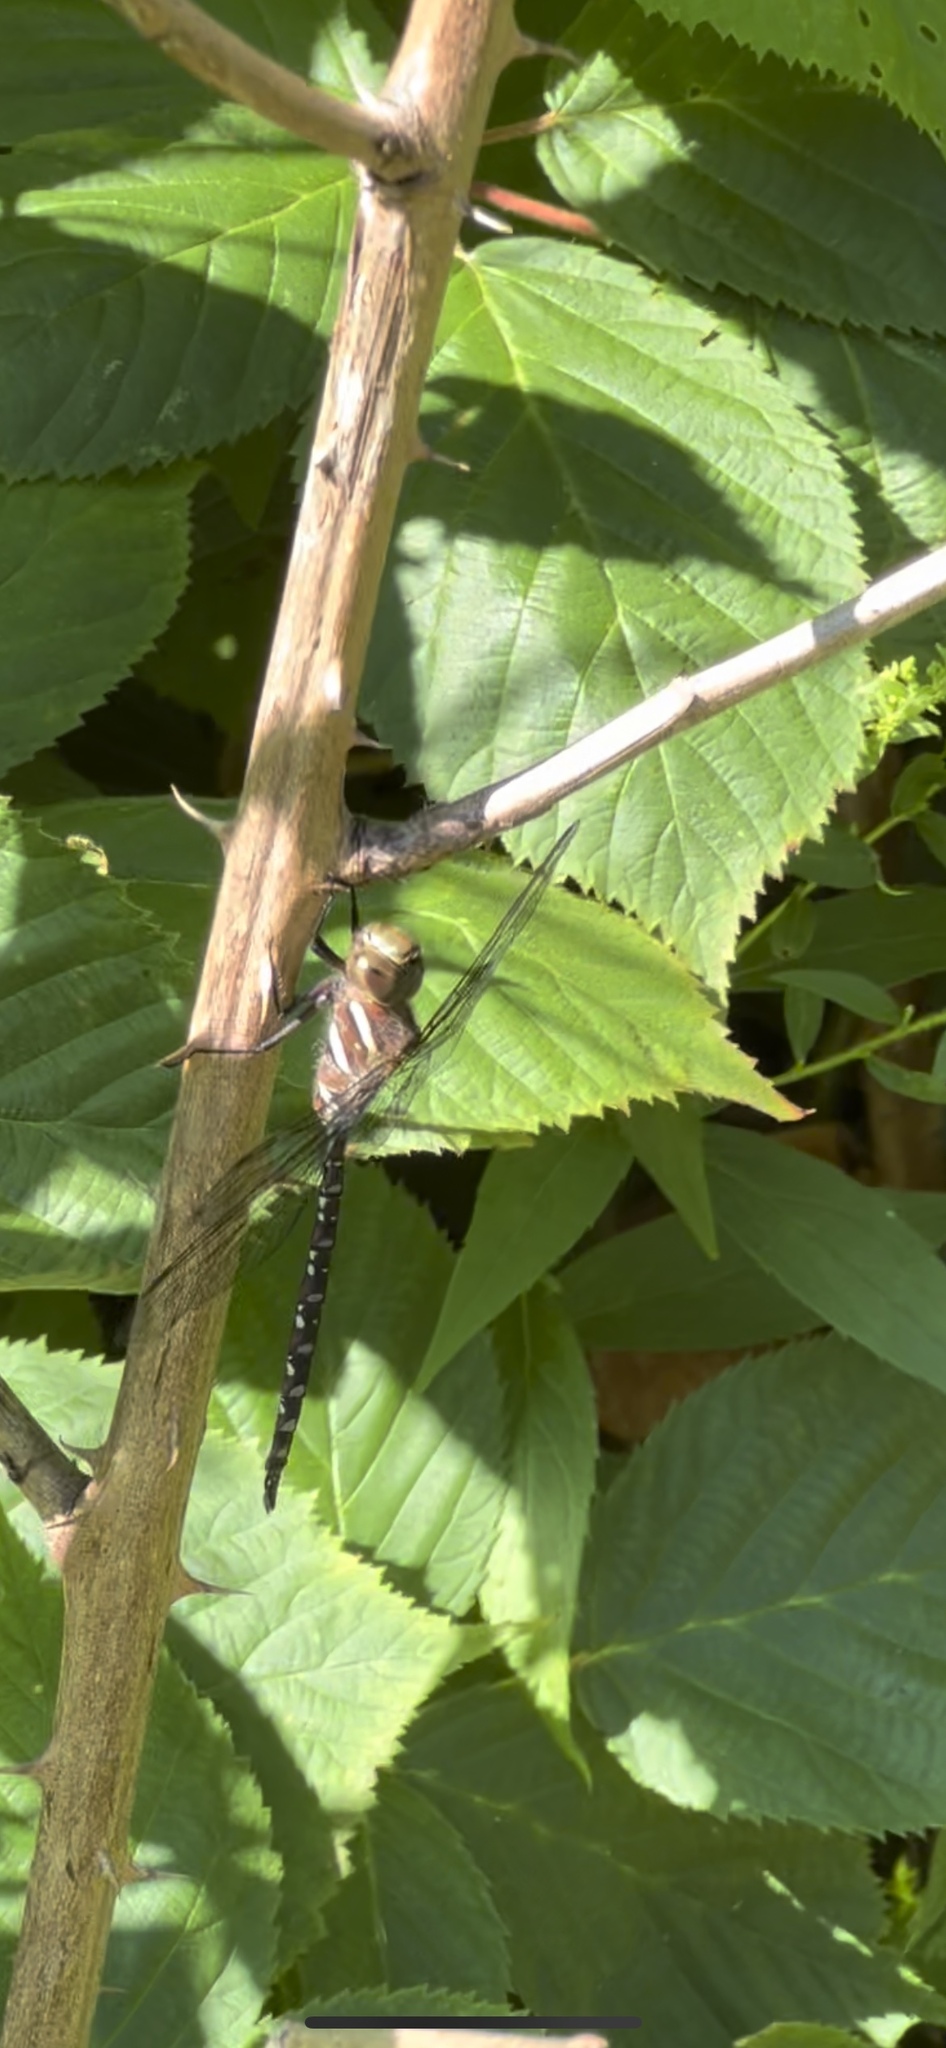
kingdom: Animalia
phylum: Arthropoda
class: Insecta
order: Odonata
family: Aeshnidae
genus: Aeshna
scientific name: Aeshna tuberculifera
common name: Aeschne à tubercules
